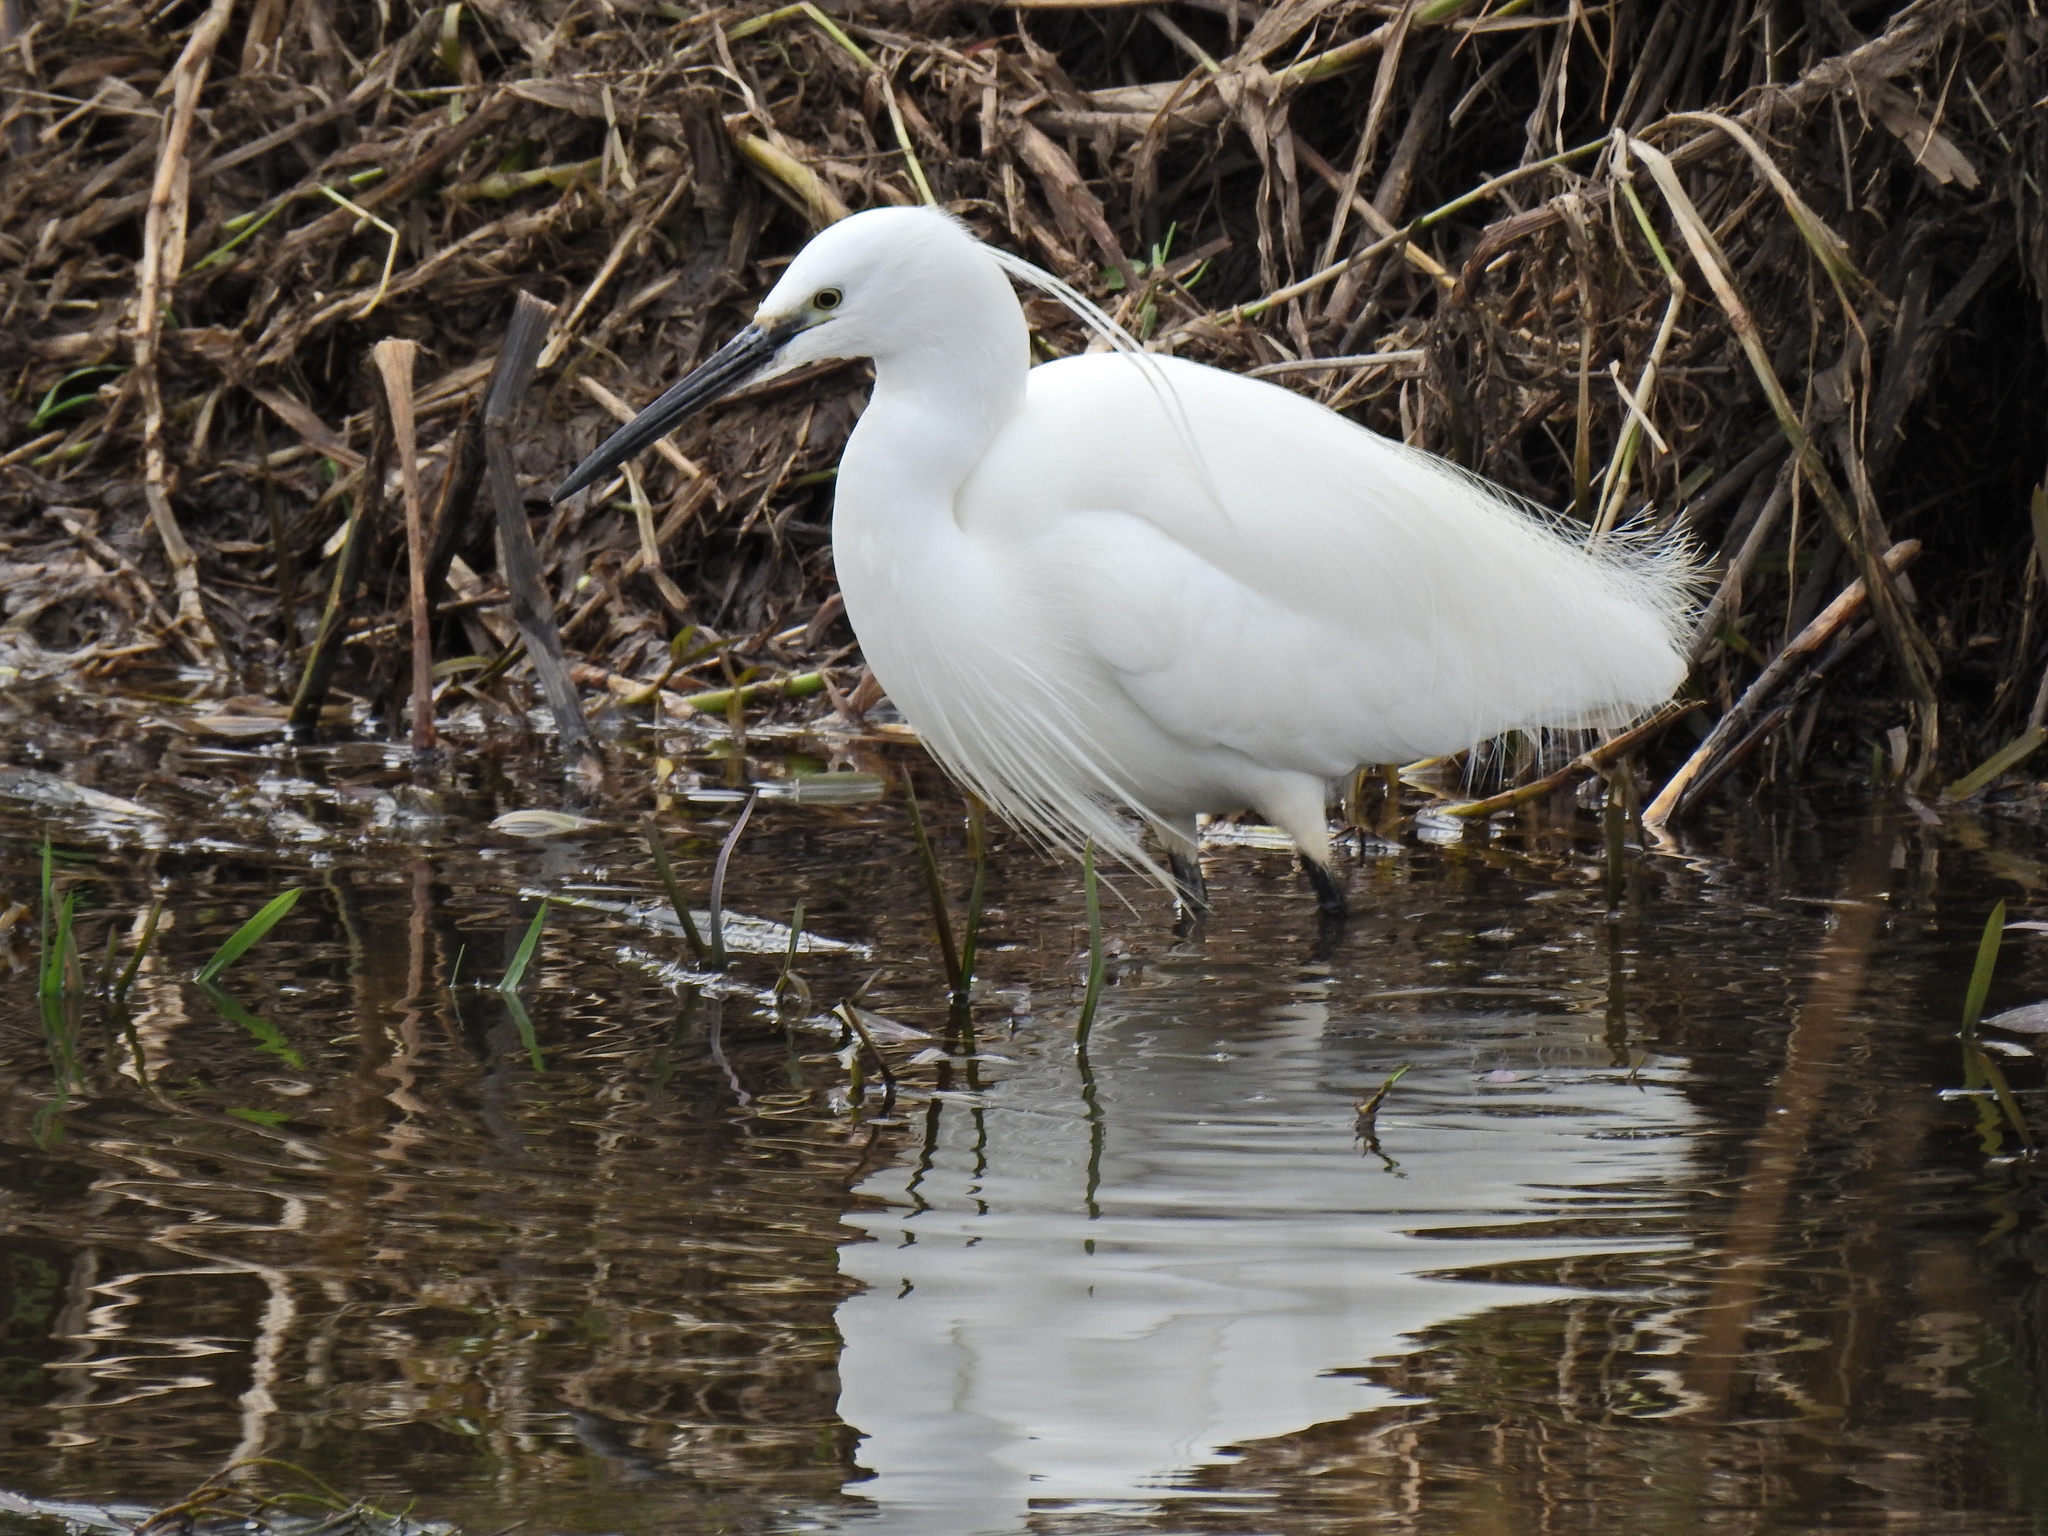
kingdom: Animalia
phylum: Chordata
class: Aves
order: Pelecaniformes
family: Ardeidae
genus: Egretta
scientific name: Egretta garzetta
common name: Little egret
